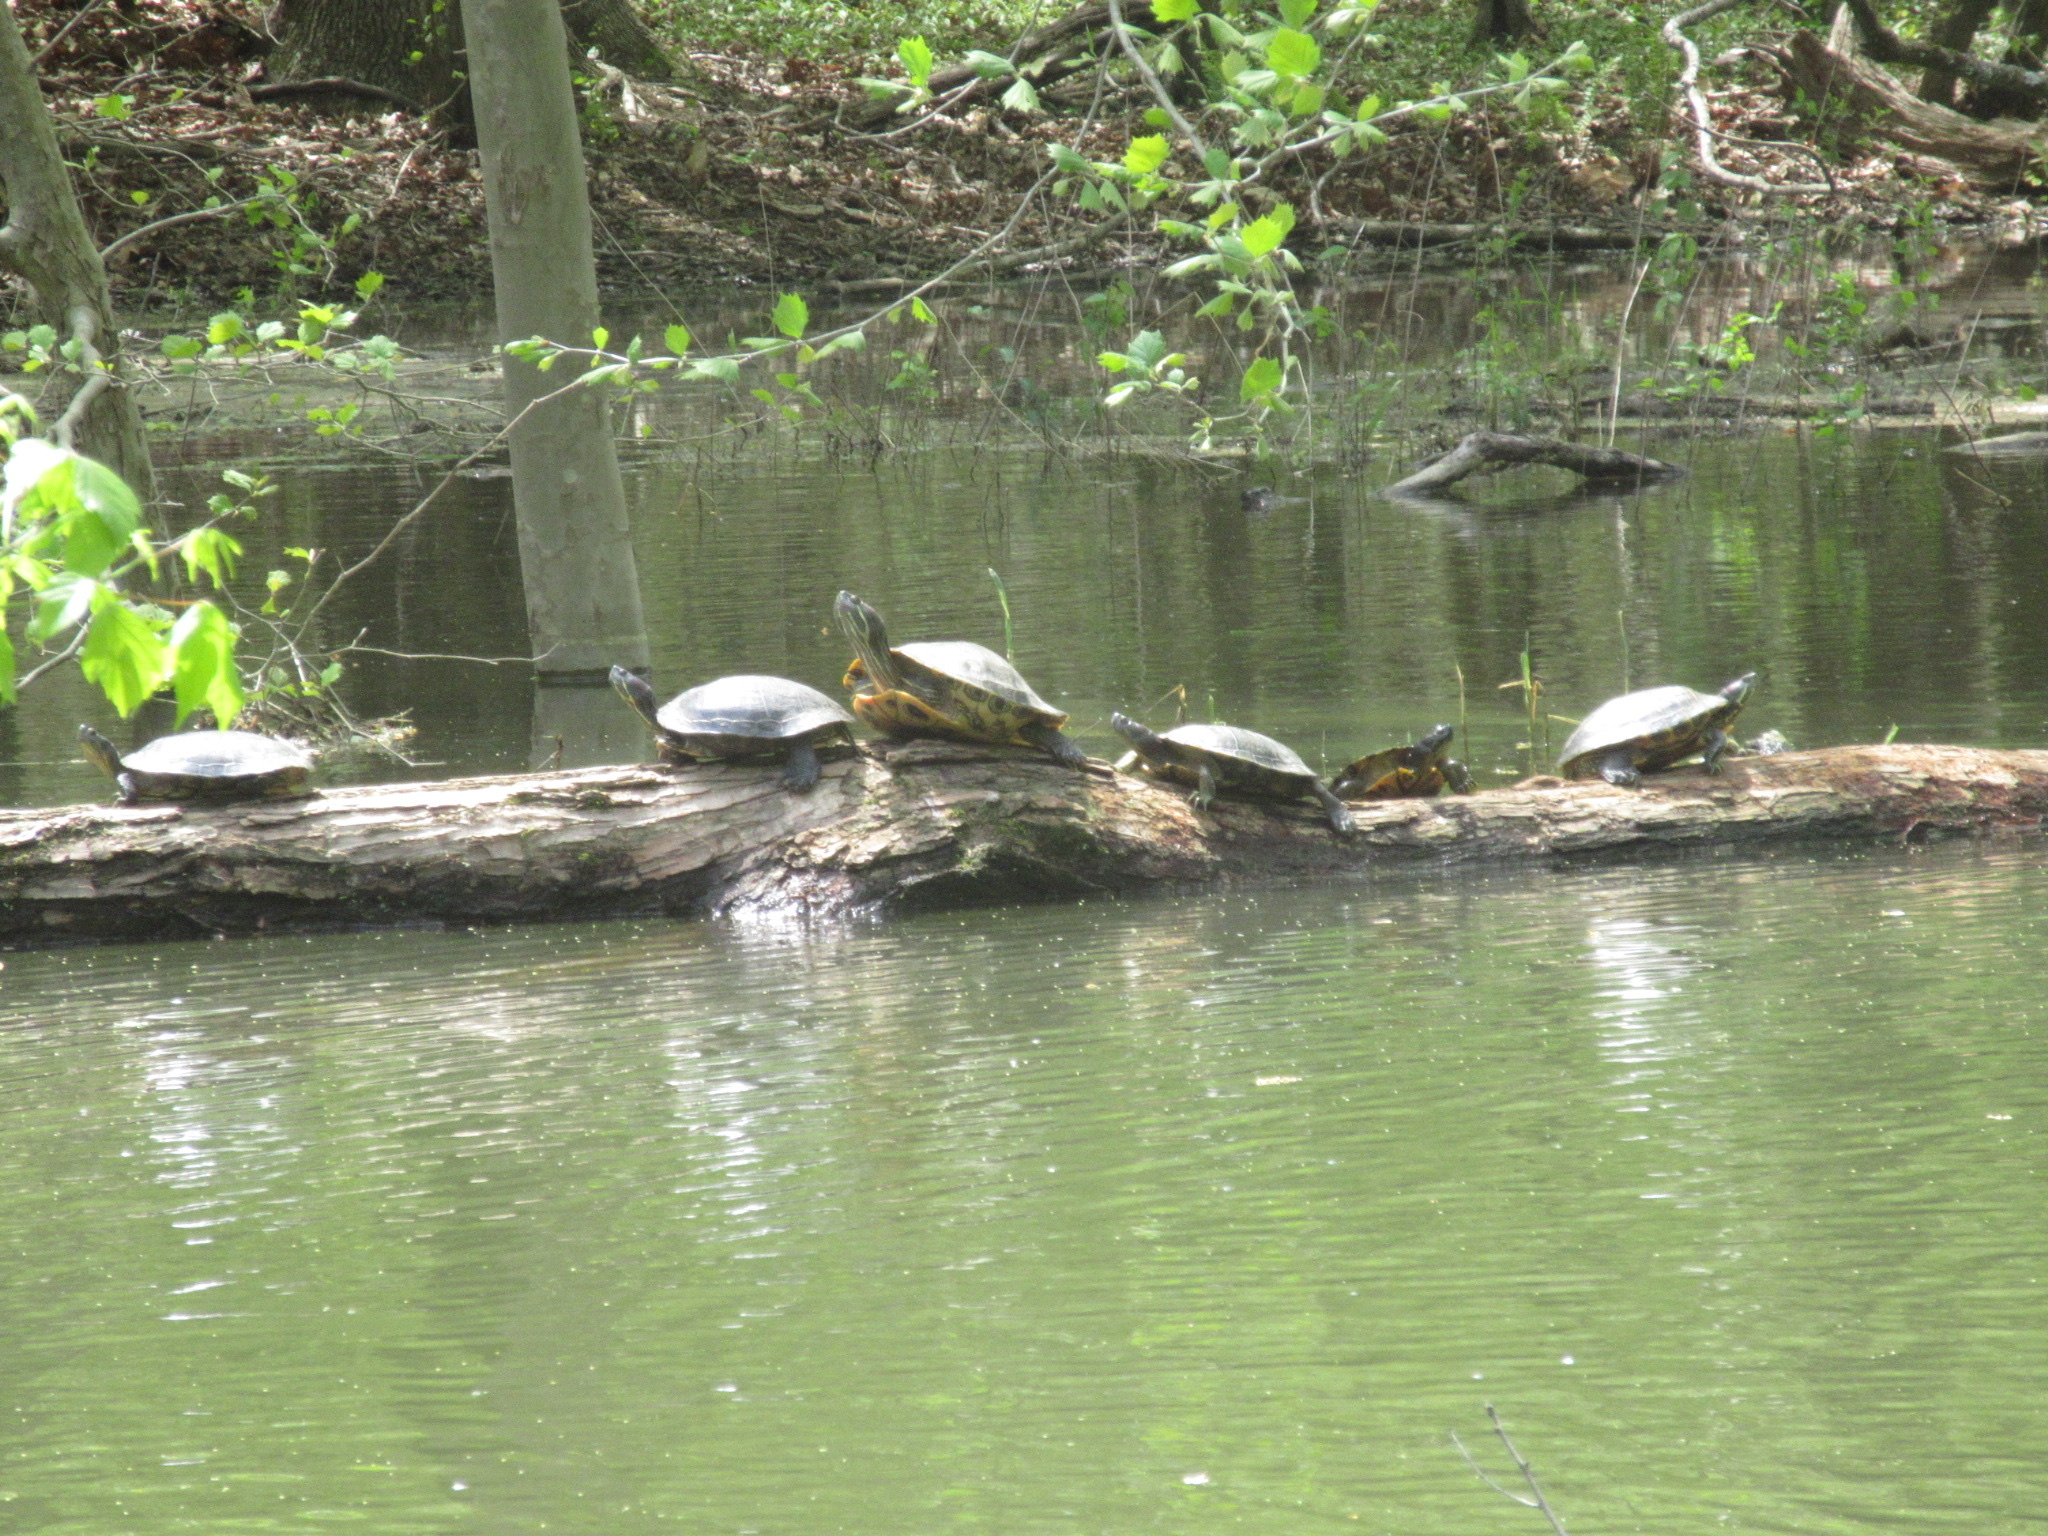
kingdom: Animalia
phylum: Chordata
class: Testudines
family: Emydidae
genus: Trachemys
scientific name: Trachemys scripta
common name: Slider
